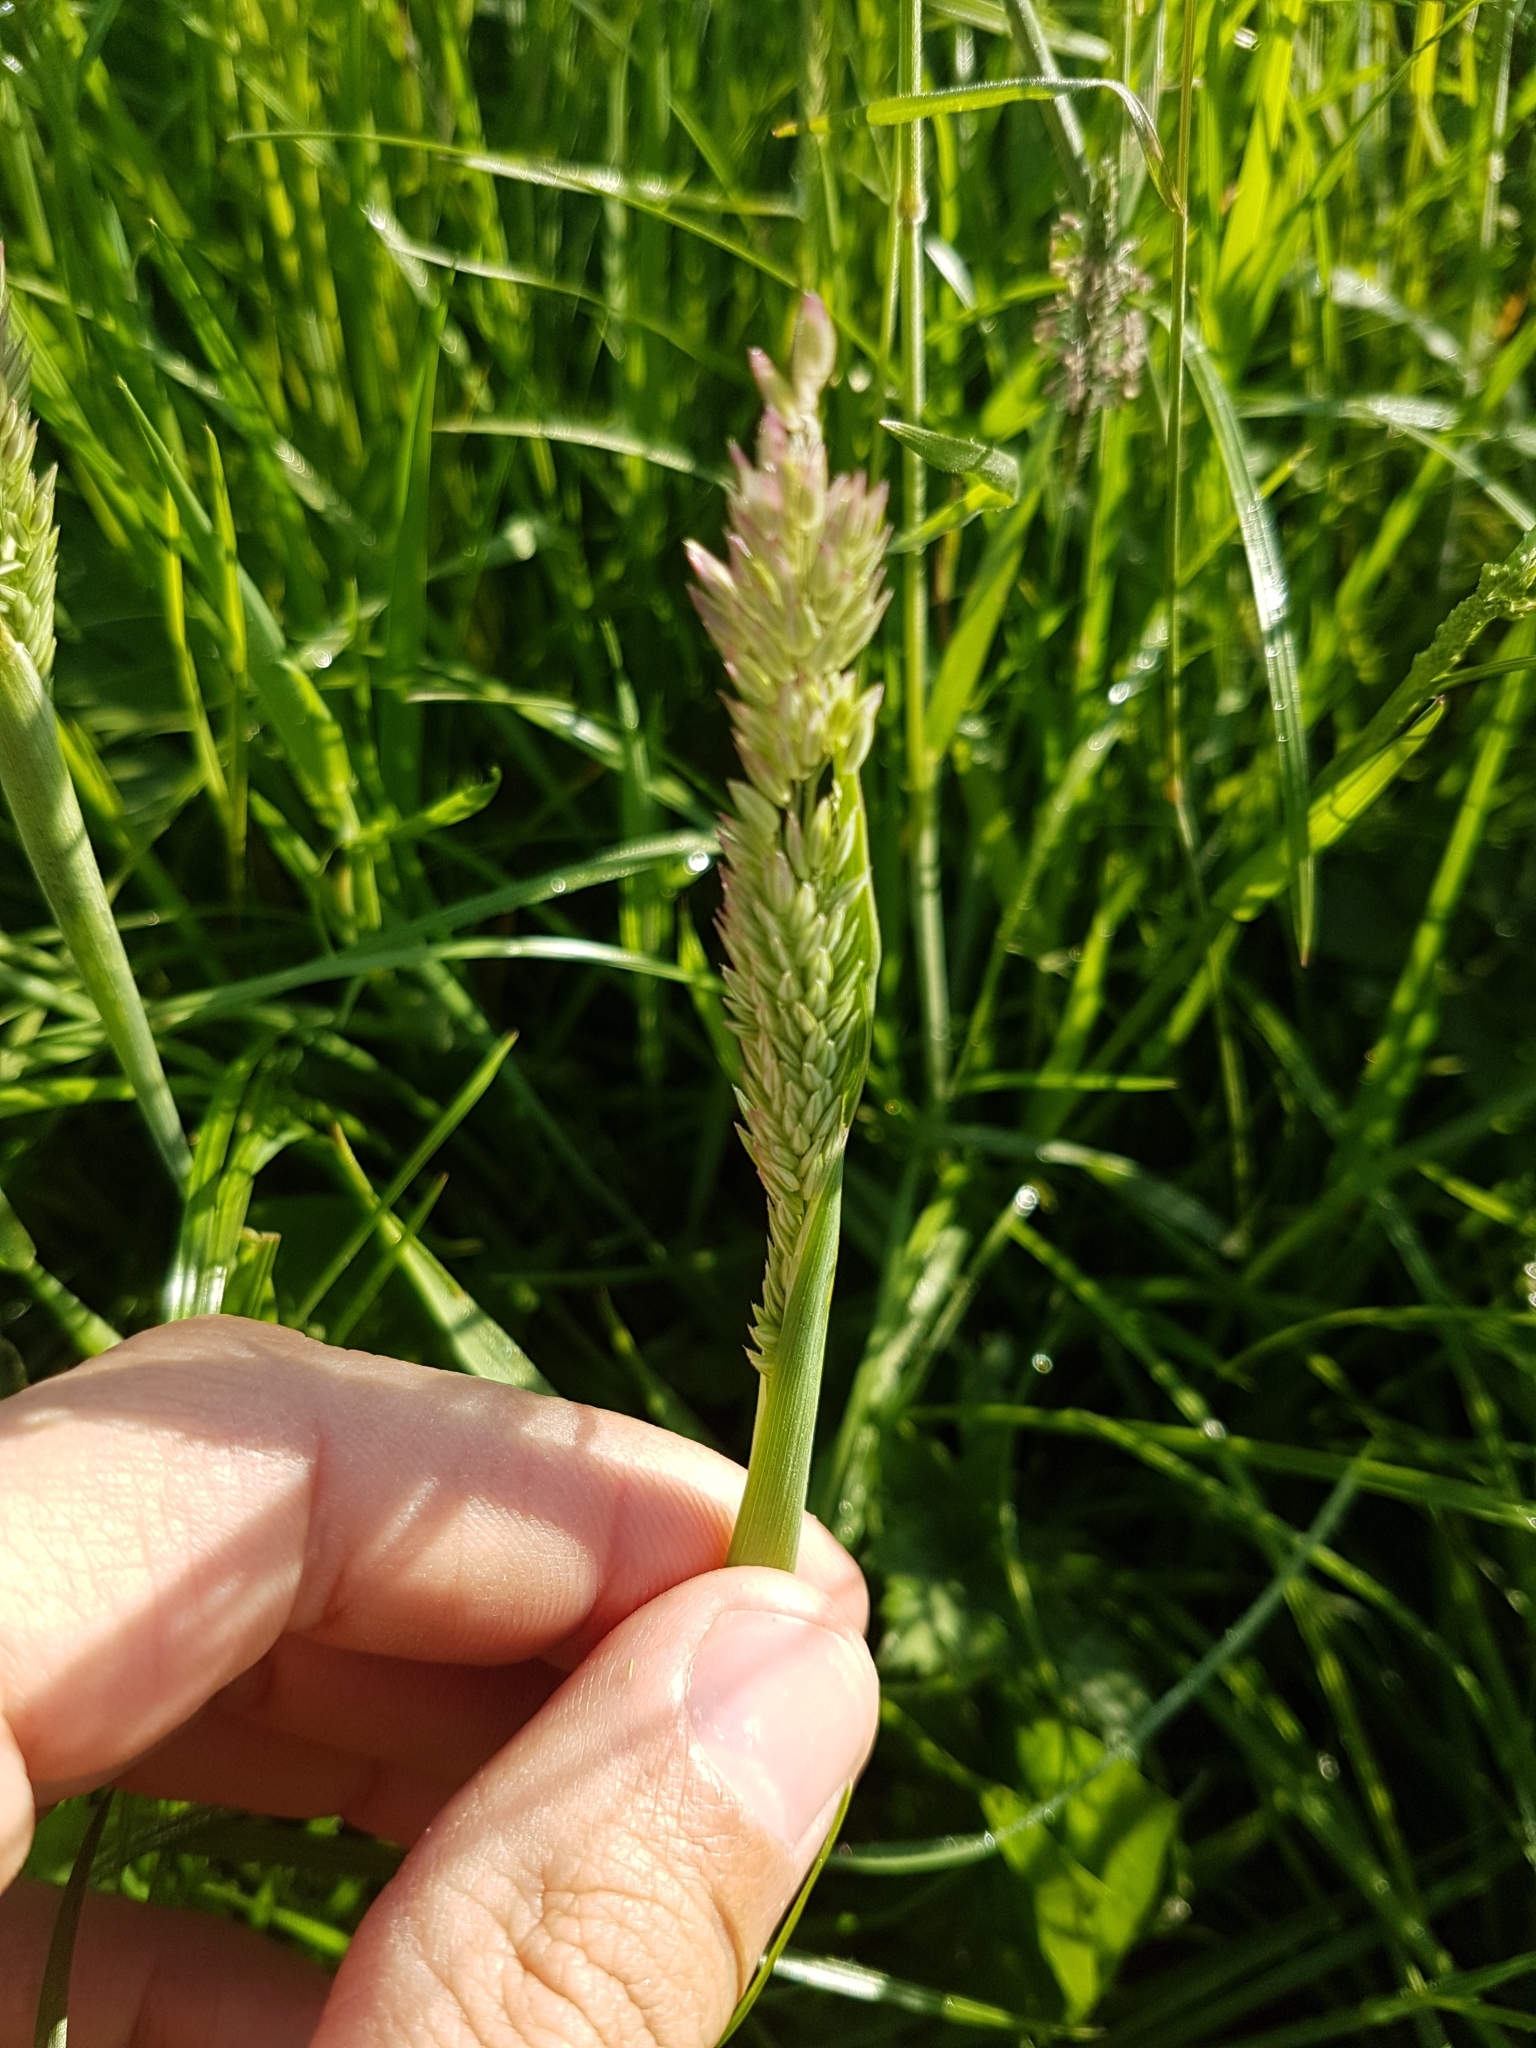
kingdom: Plantae
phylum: Tracheophyta
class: Liliopsida
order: Poales
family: Poaceae
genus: Holcus
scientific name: Holcus lanatus
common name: Yorkshire-fog
